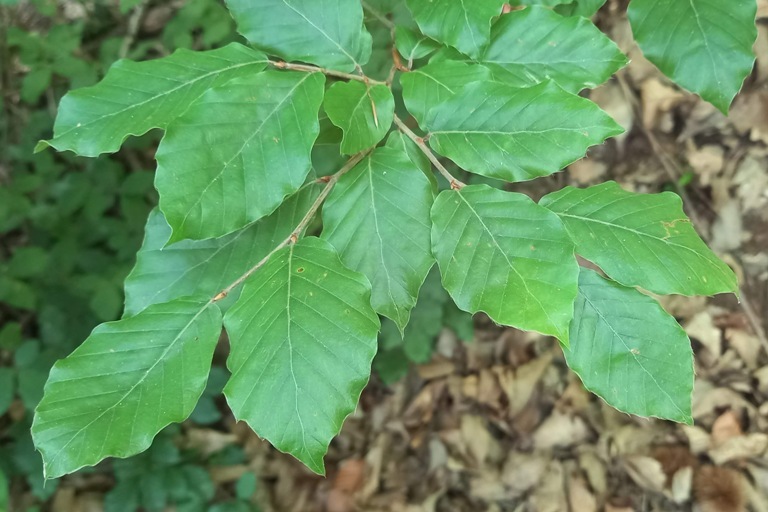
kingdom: Plantae
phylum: Tracheophyta
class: Magnoliopsida
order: Fagales
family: Fagaceae
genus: Fagus
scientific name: Fagus sylvatica
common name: Beech
